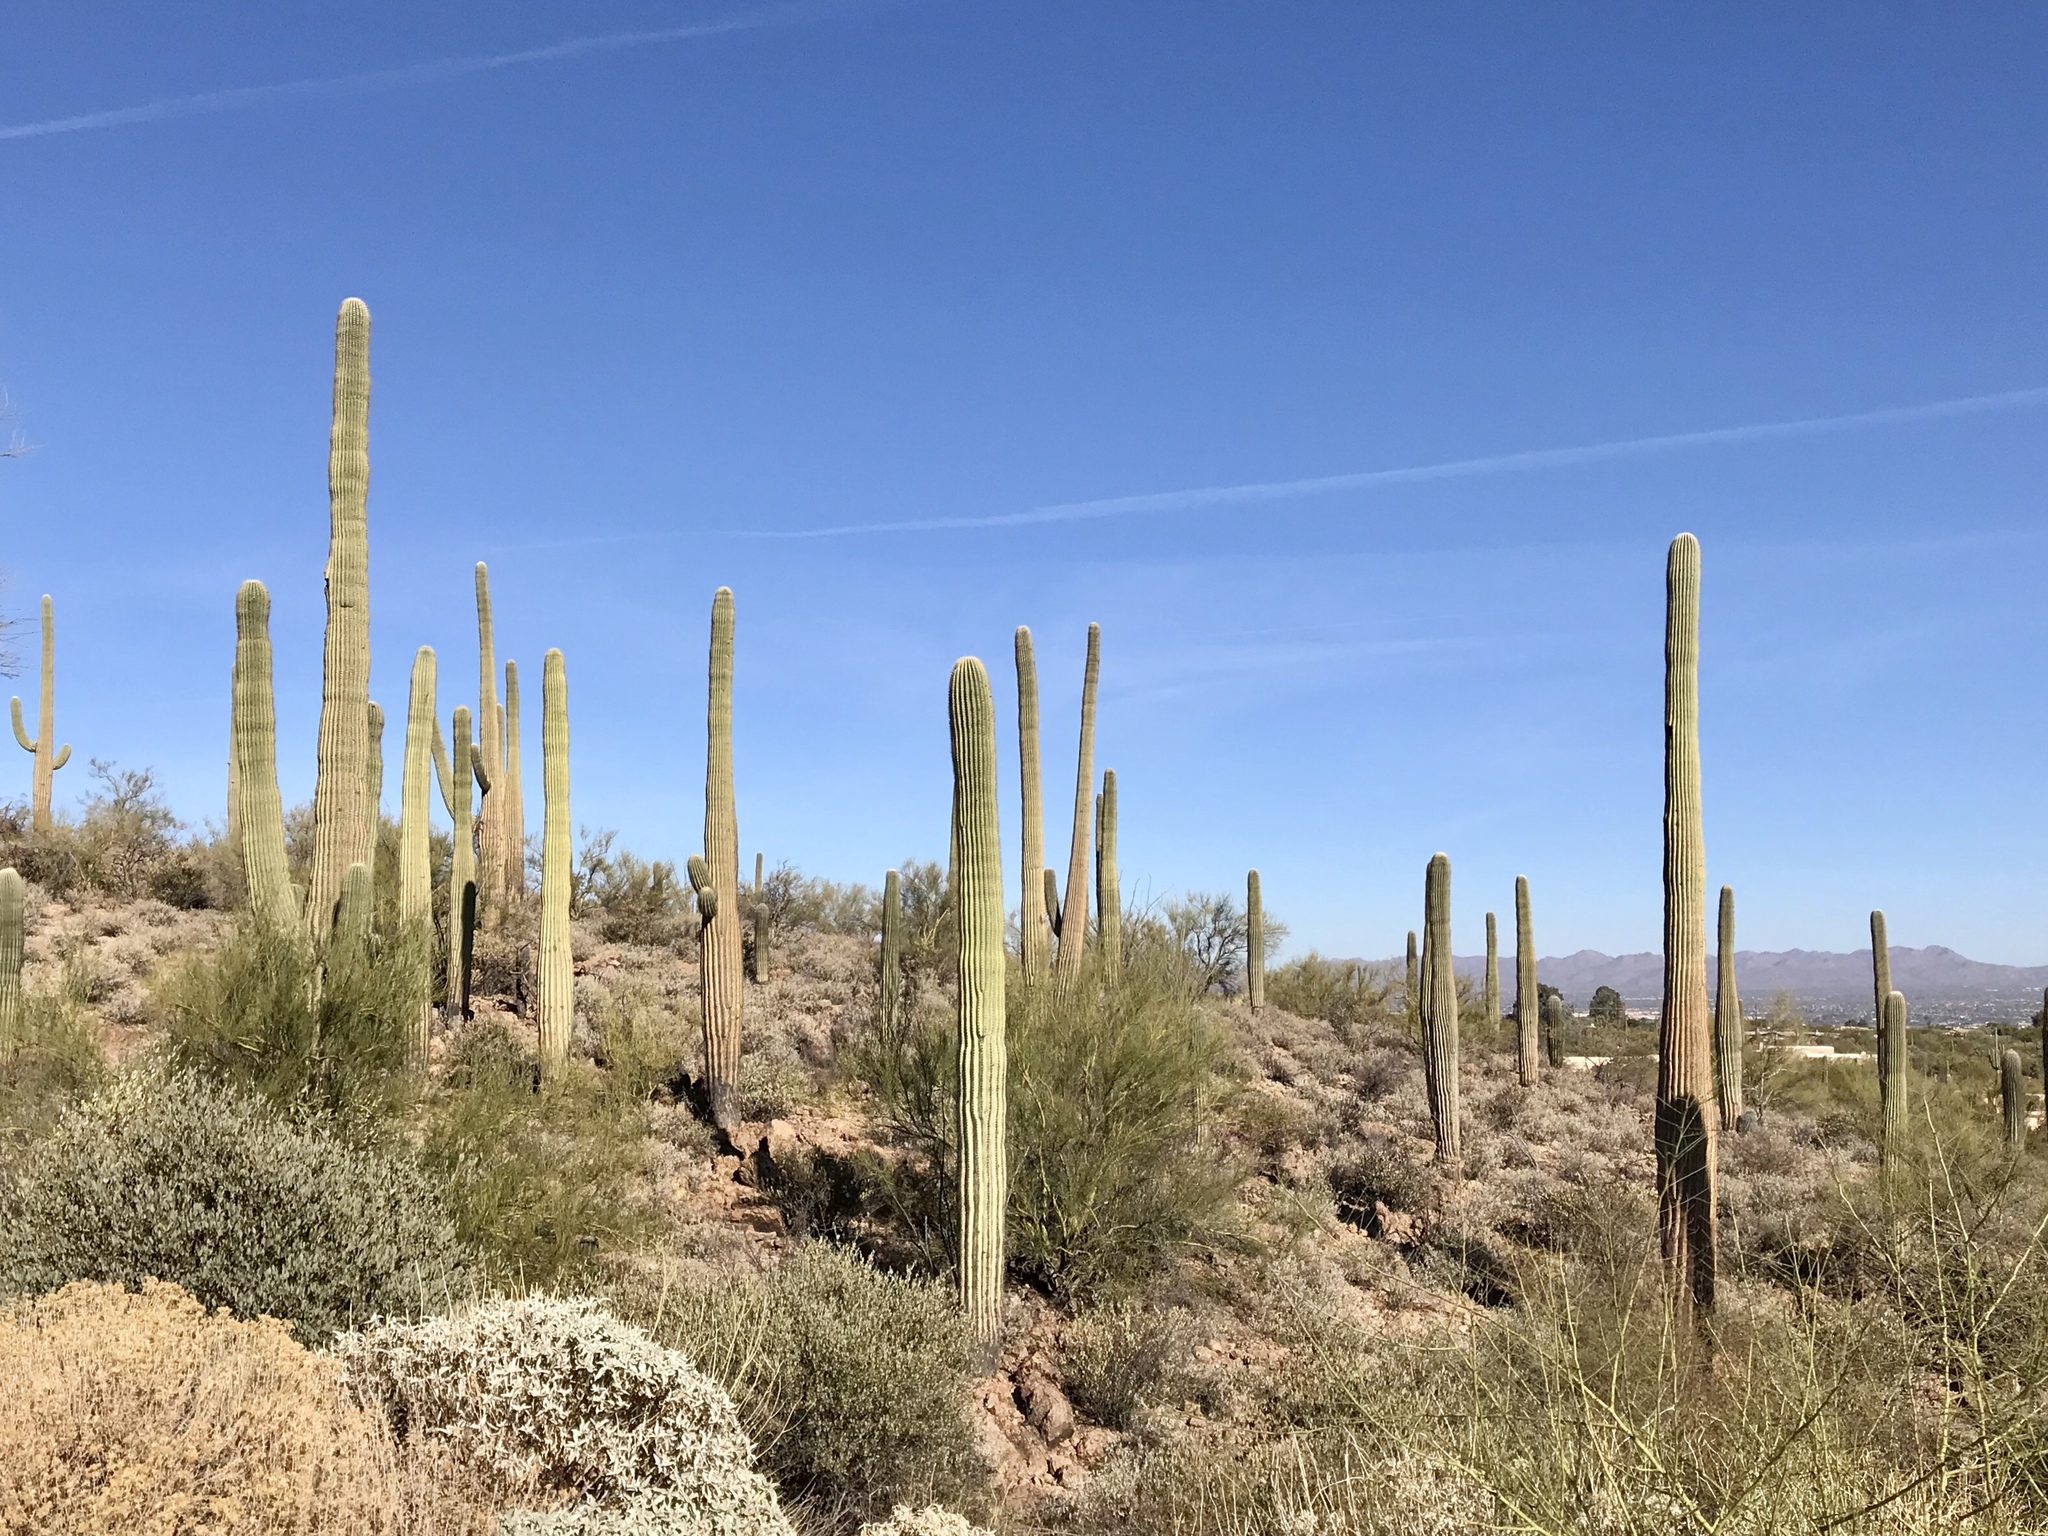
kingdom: Plantae
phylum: Tracheophyta
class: Magnoliopsida
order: Caryophyllales
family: Cactaceae
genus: Carnegiea
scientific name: Carnegiea gigantea
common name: Saguaro
